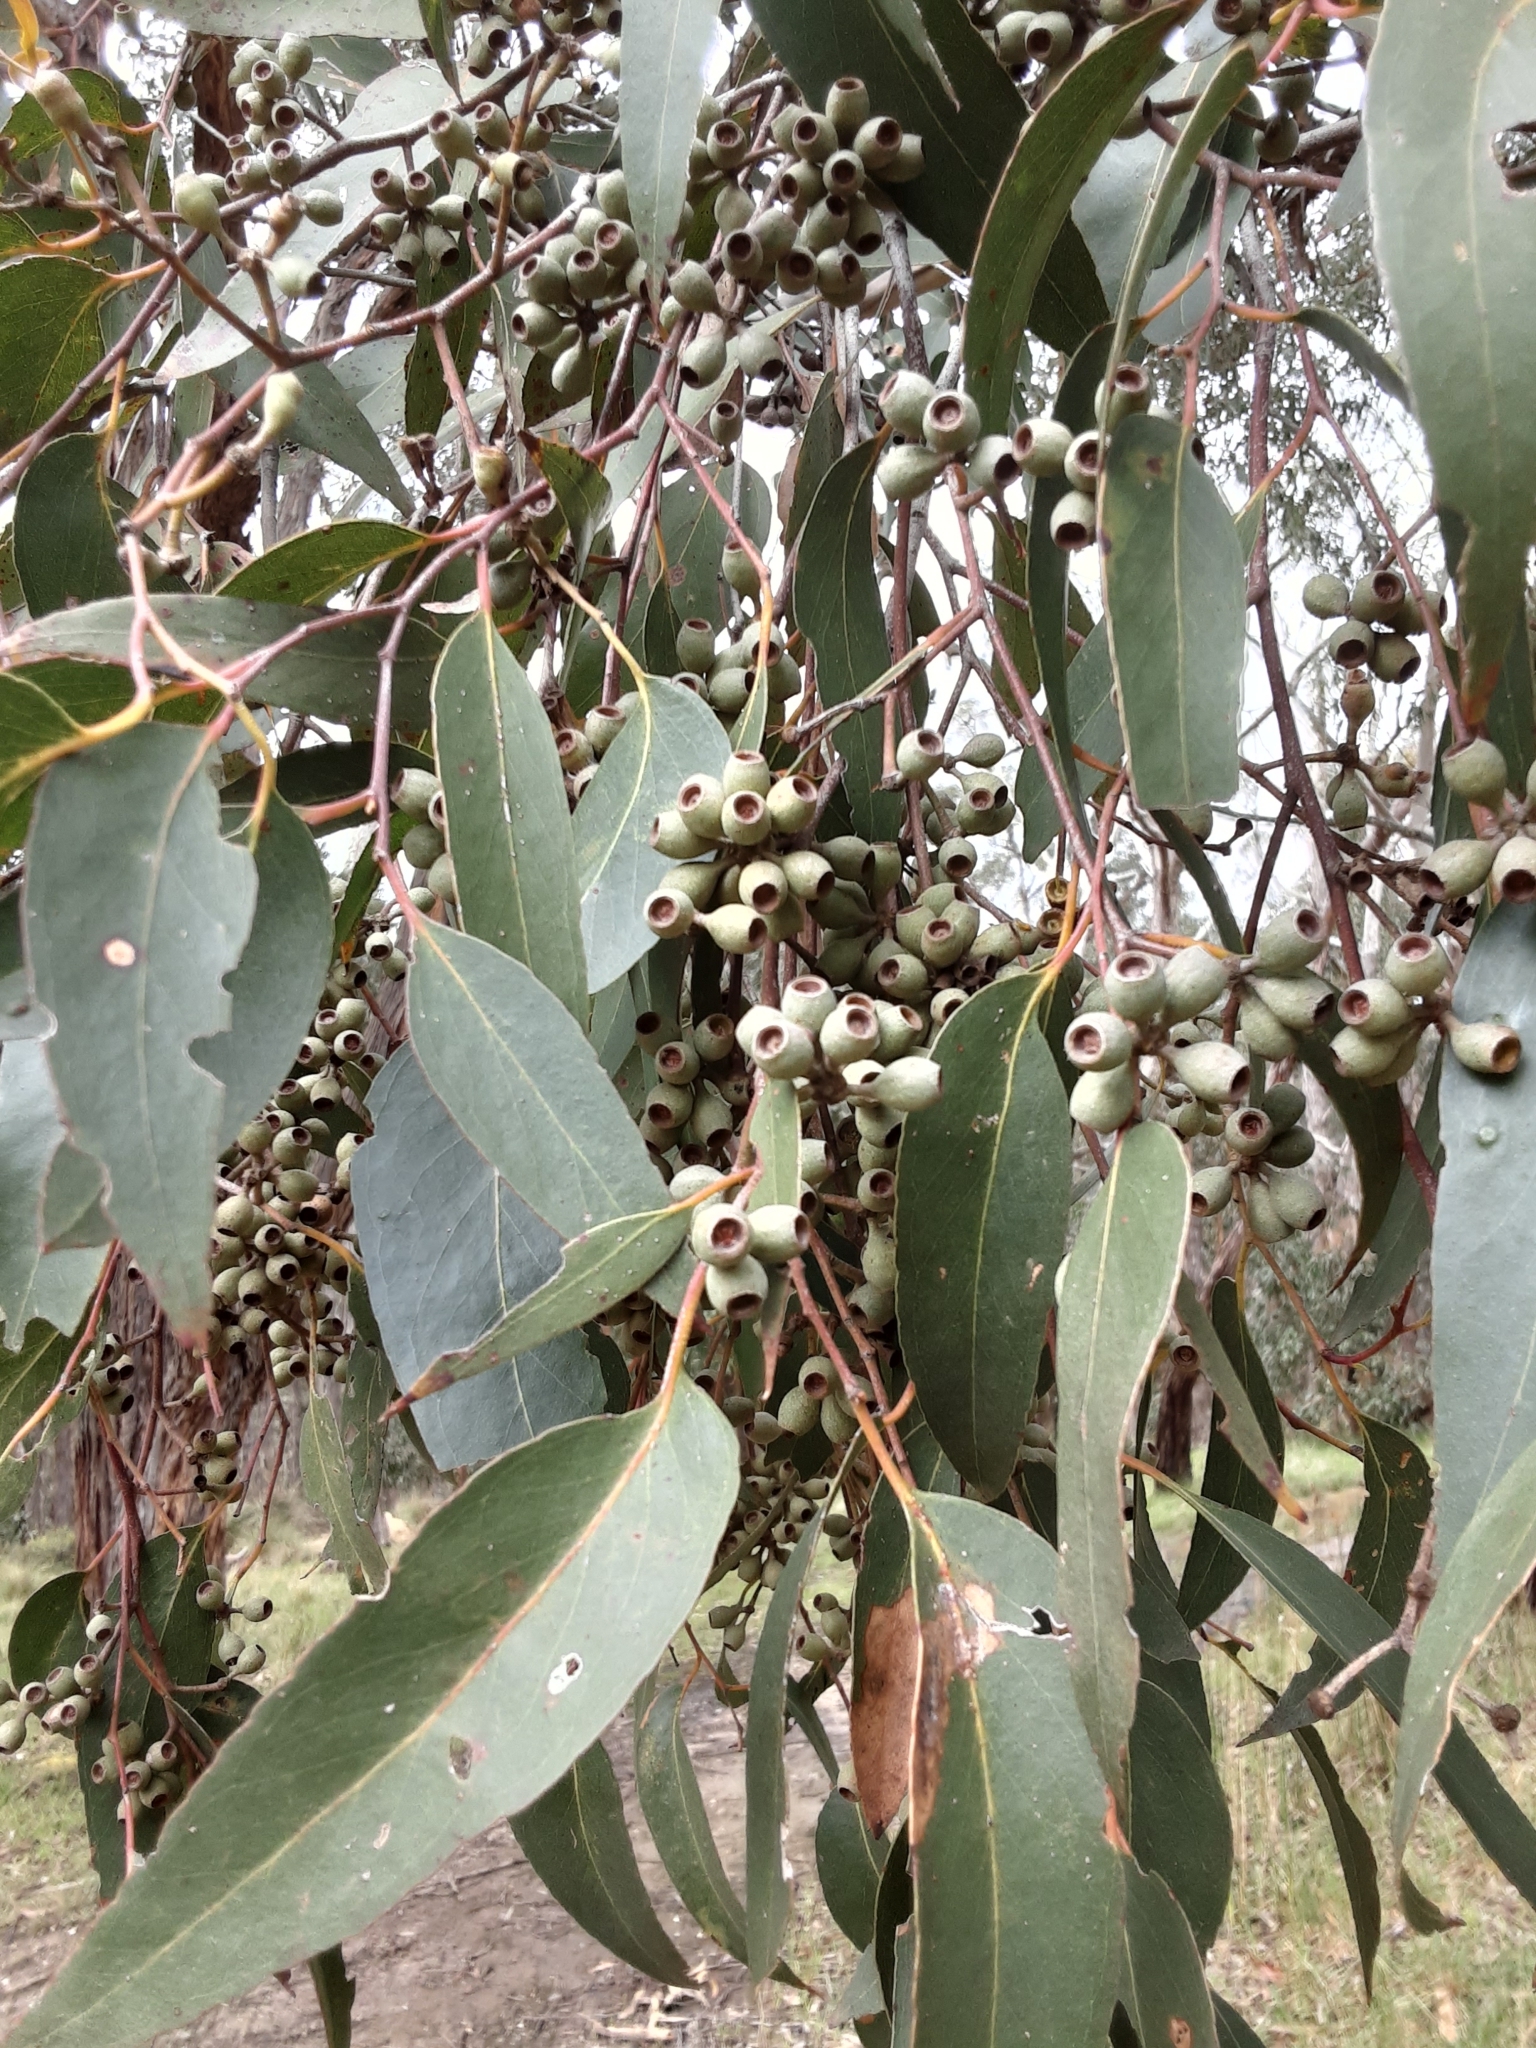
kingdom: Plantae
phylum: Tracheophyta
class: Magnoliopsida
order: Myrtales
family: Myrtaceae
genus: Eucalyptus
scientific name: Eucalyptus obliqua
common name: Messmate stringybark
